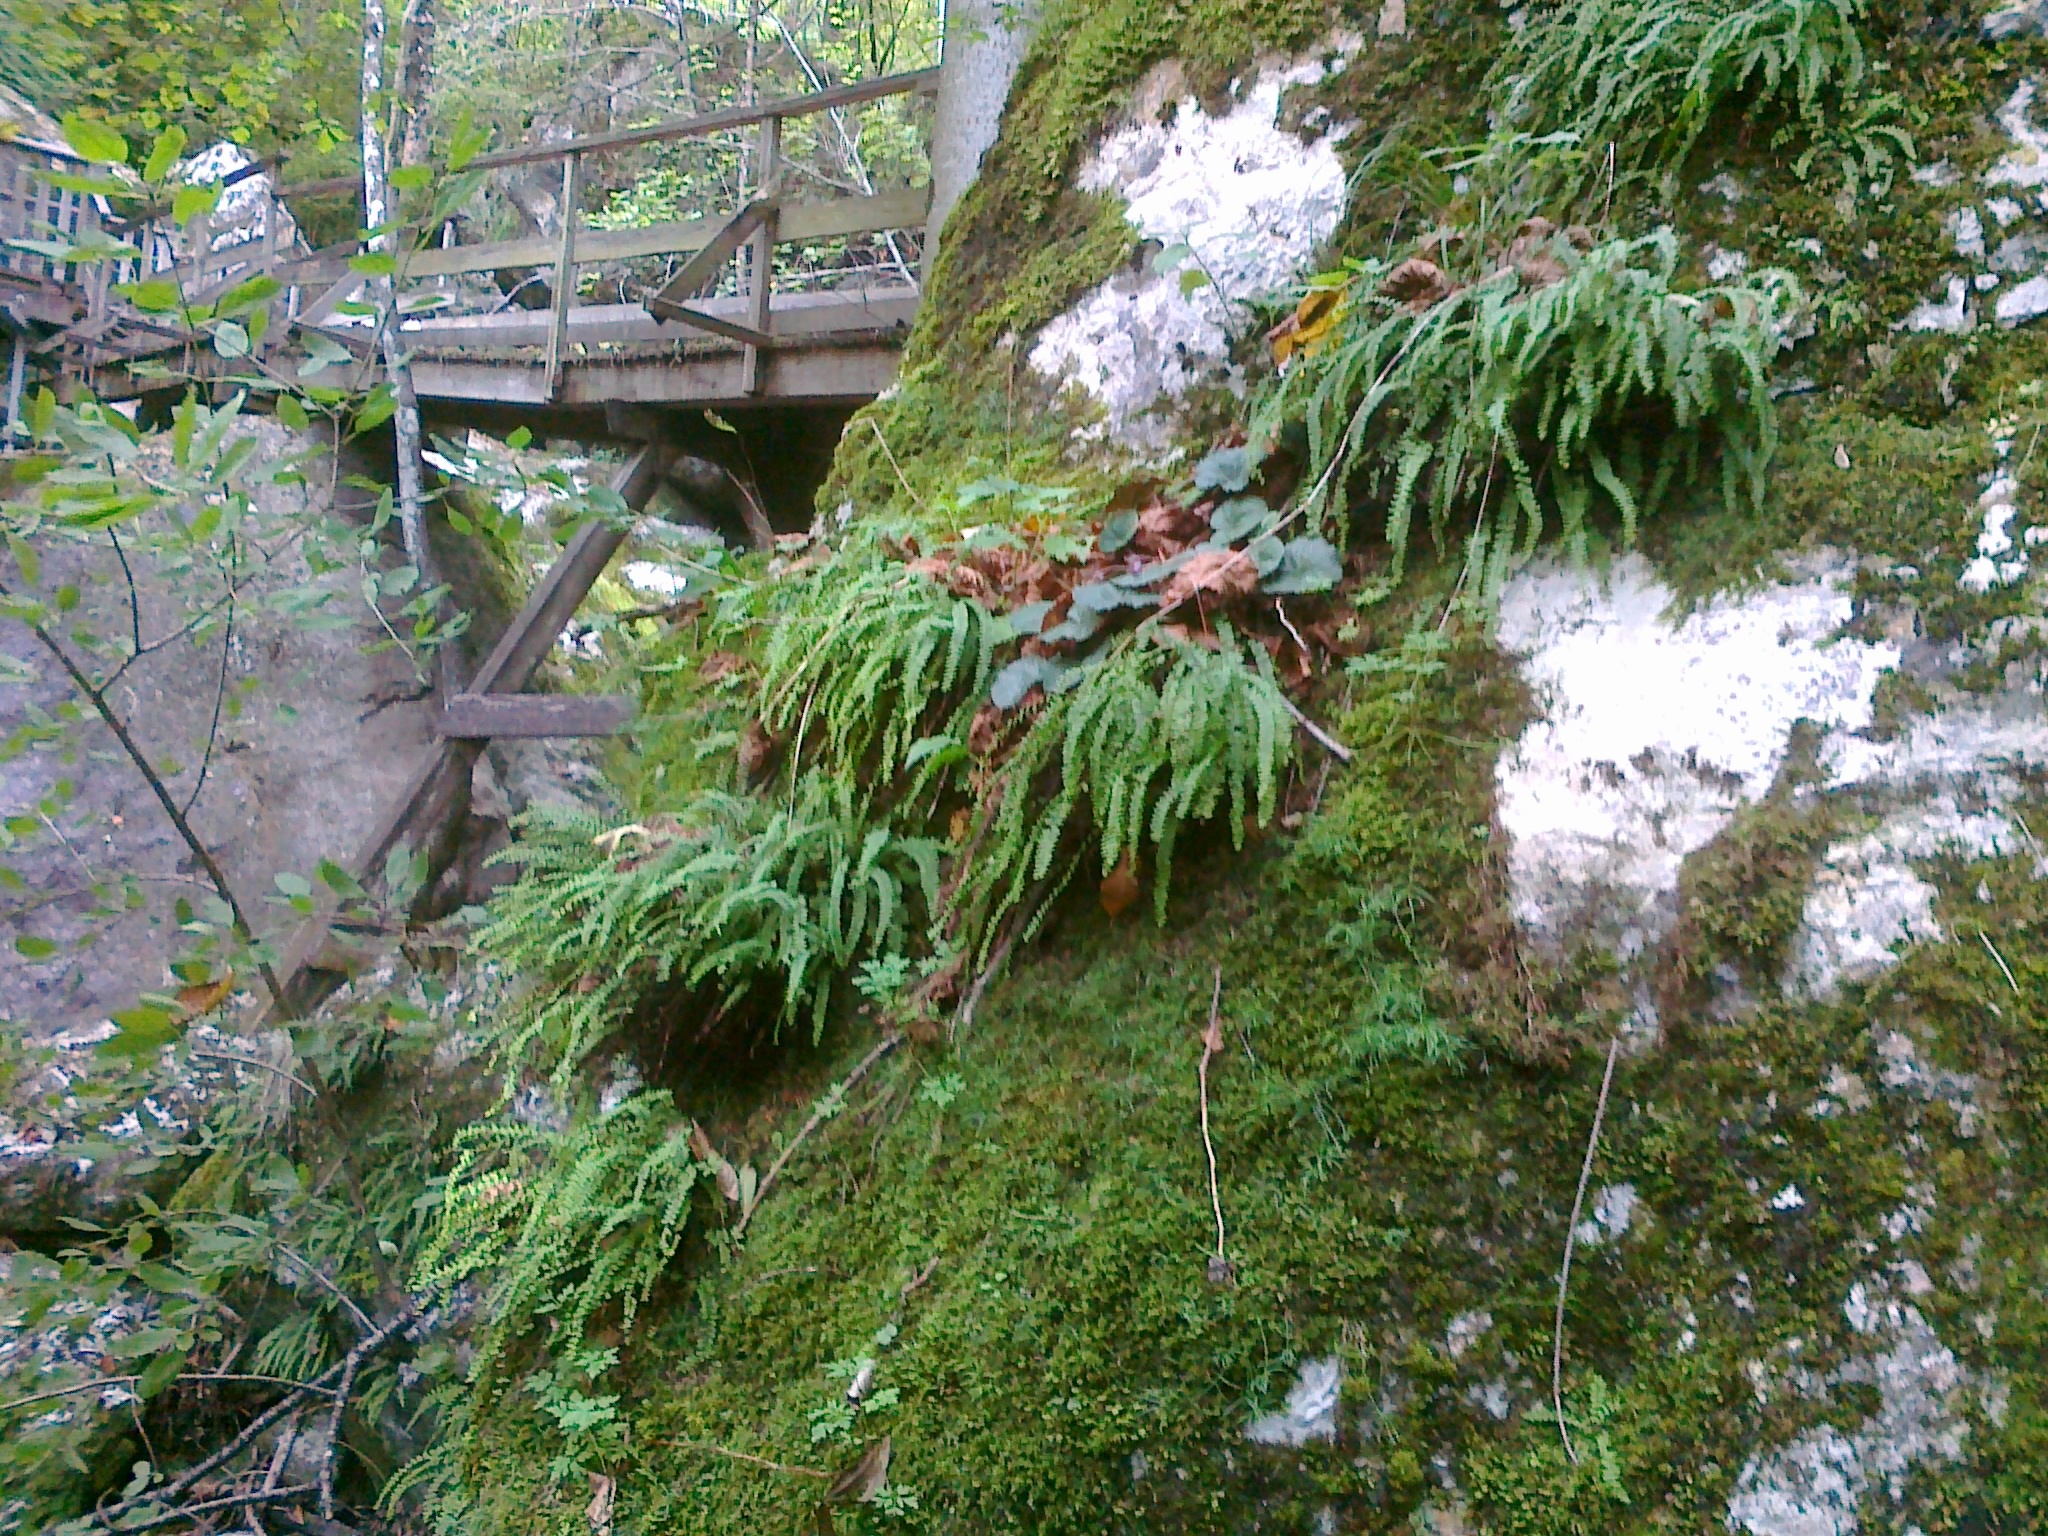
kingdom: Plantae
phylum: Tracheophyta
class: Polypodiopsida
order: Polypodiales
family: Aspleniaceae
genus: Asplenium
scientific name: Asplenium quadrivalens
